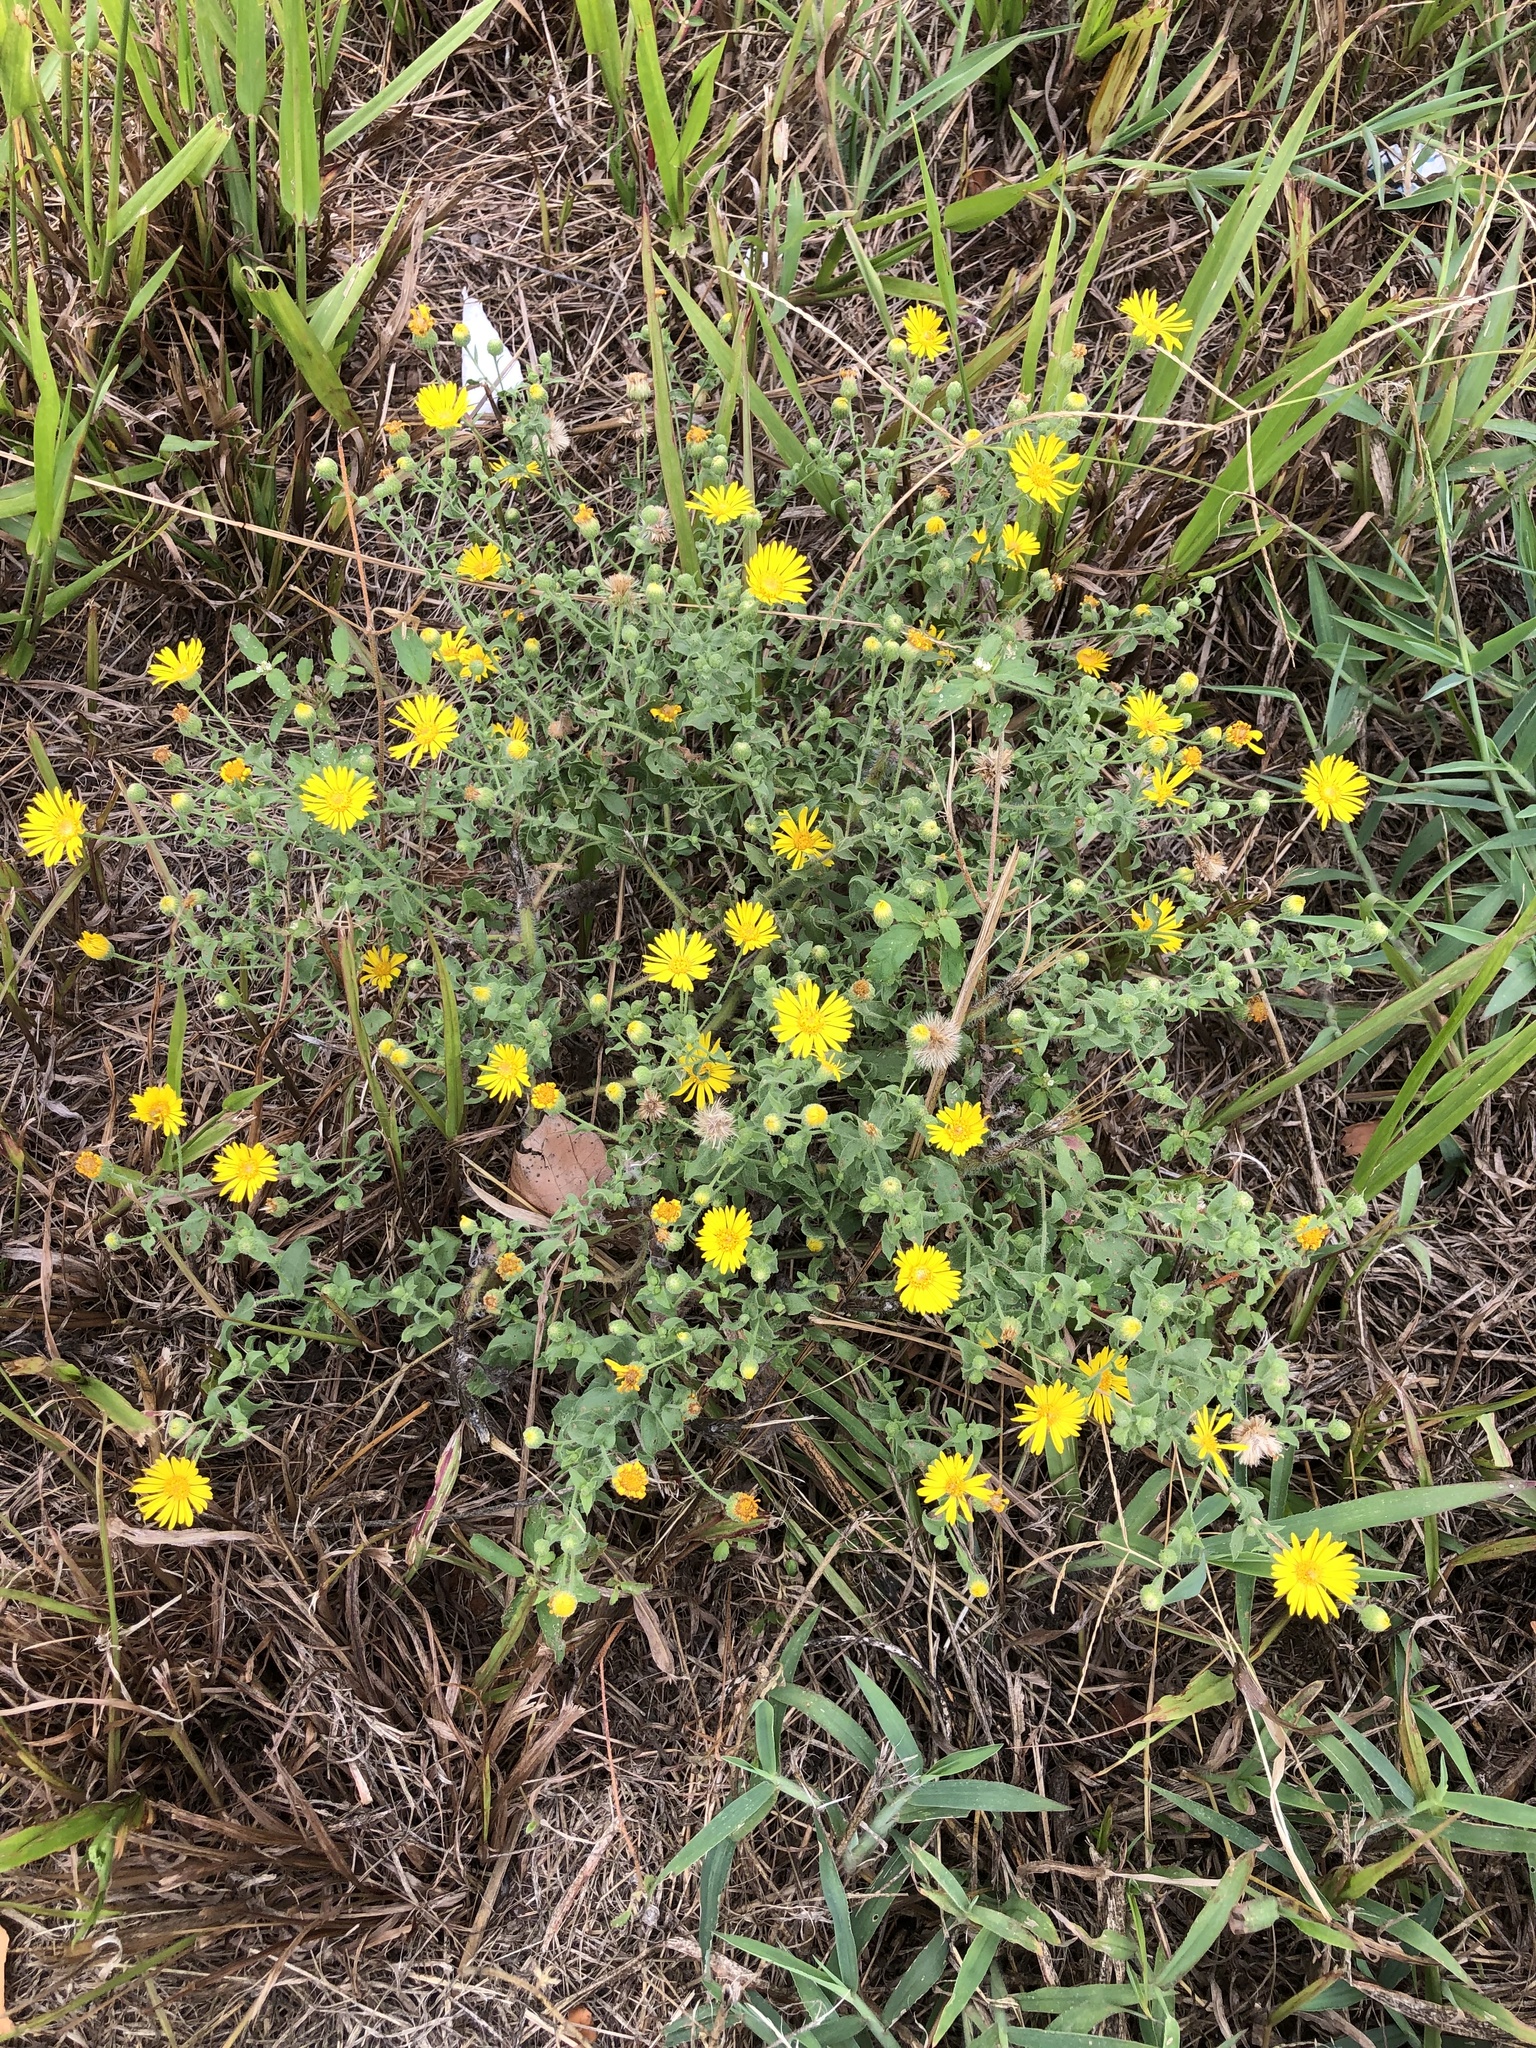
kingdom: Plantae
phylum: Tracheophyta
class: Magnoliopsida
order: Asterales
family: Asteraceae
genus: Heterotheca
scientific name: Heterotheca subaxillaris
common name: Camphorweed
